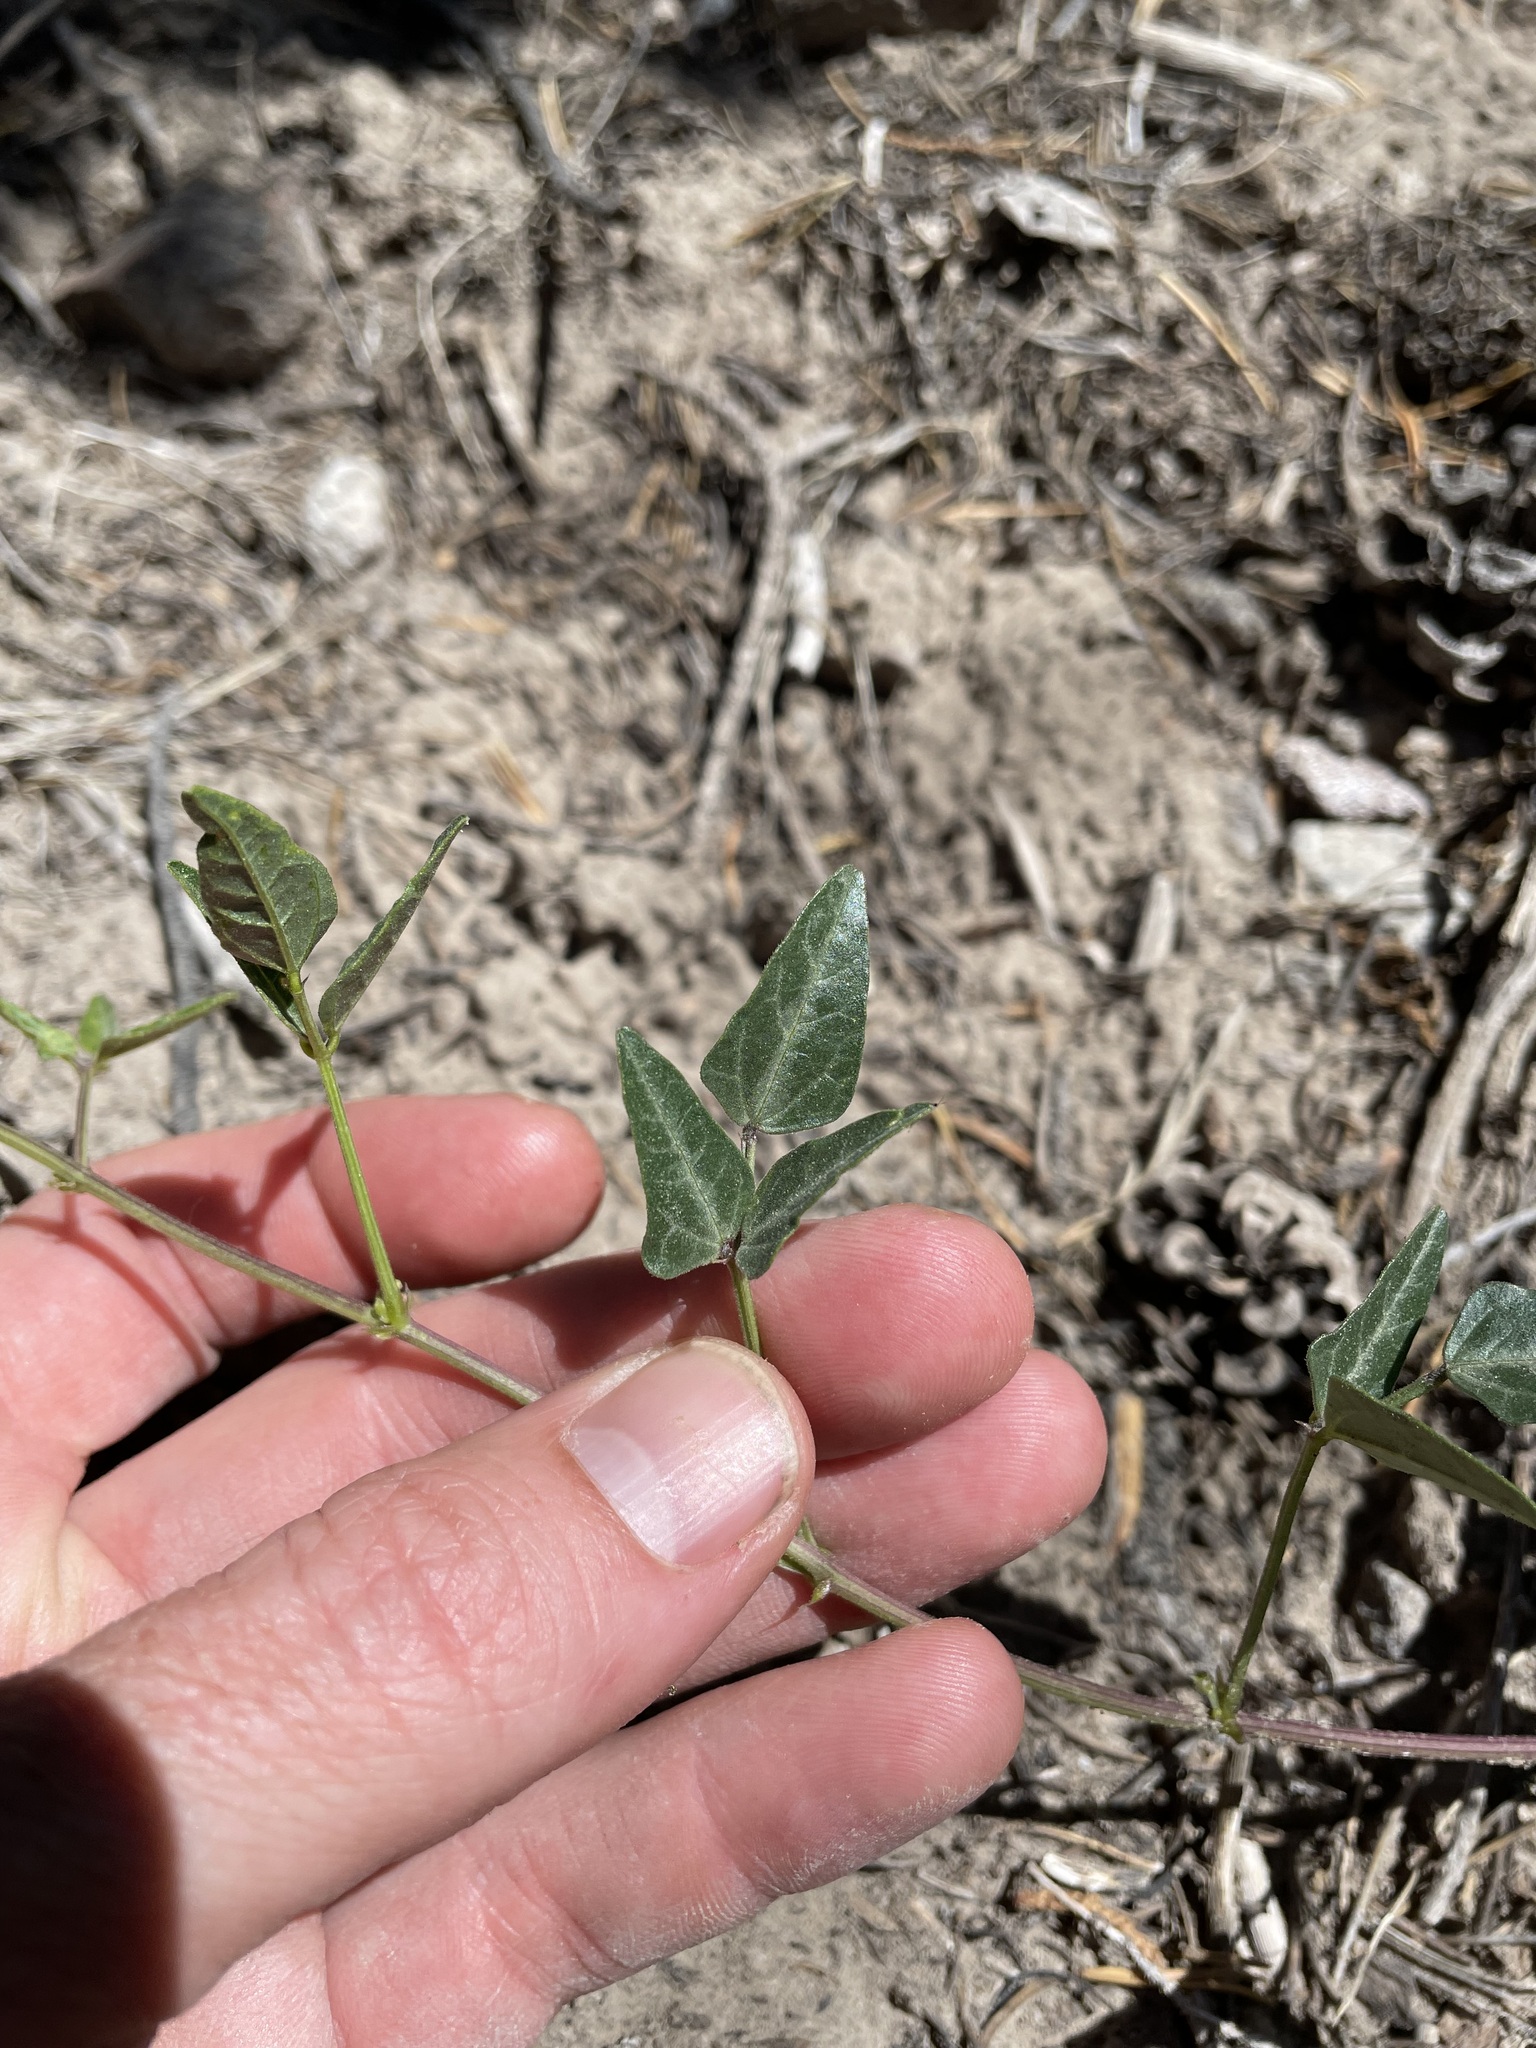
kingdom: Plantae
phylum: Tracheophyta
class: Magnoliopsida
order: Fabales
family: Fabaceae
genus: Phaseolus
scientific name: Phaseolus angustissimus
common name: Slimleaf bean
